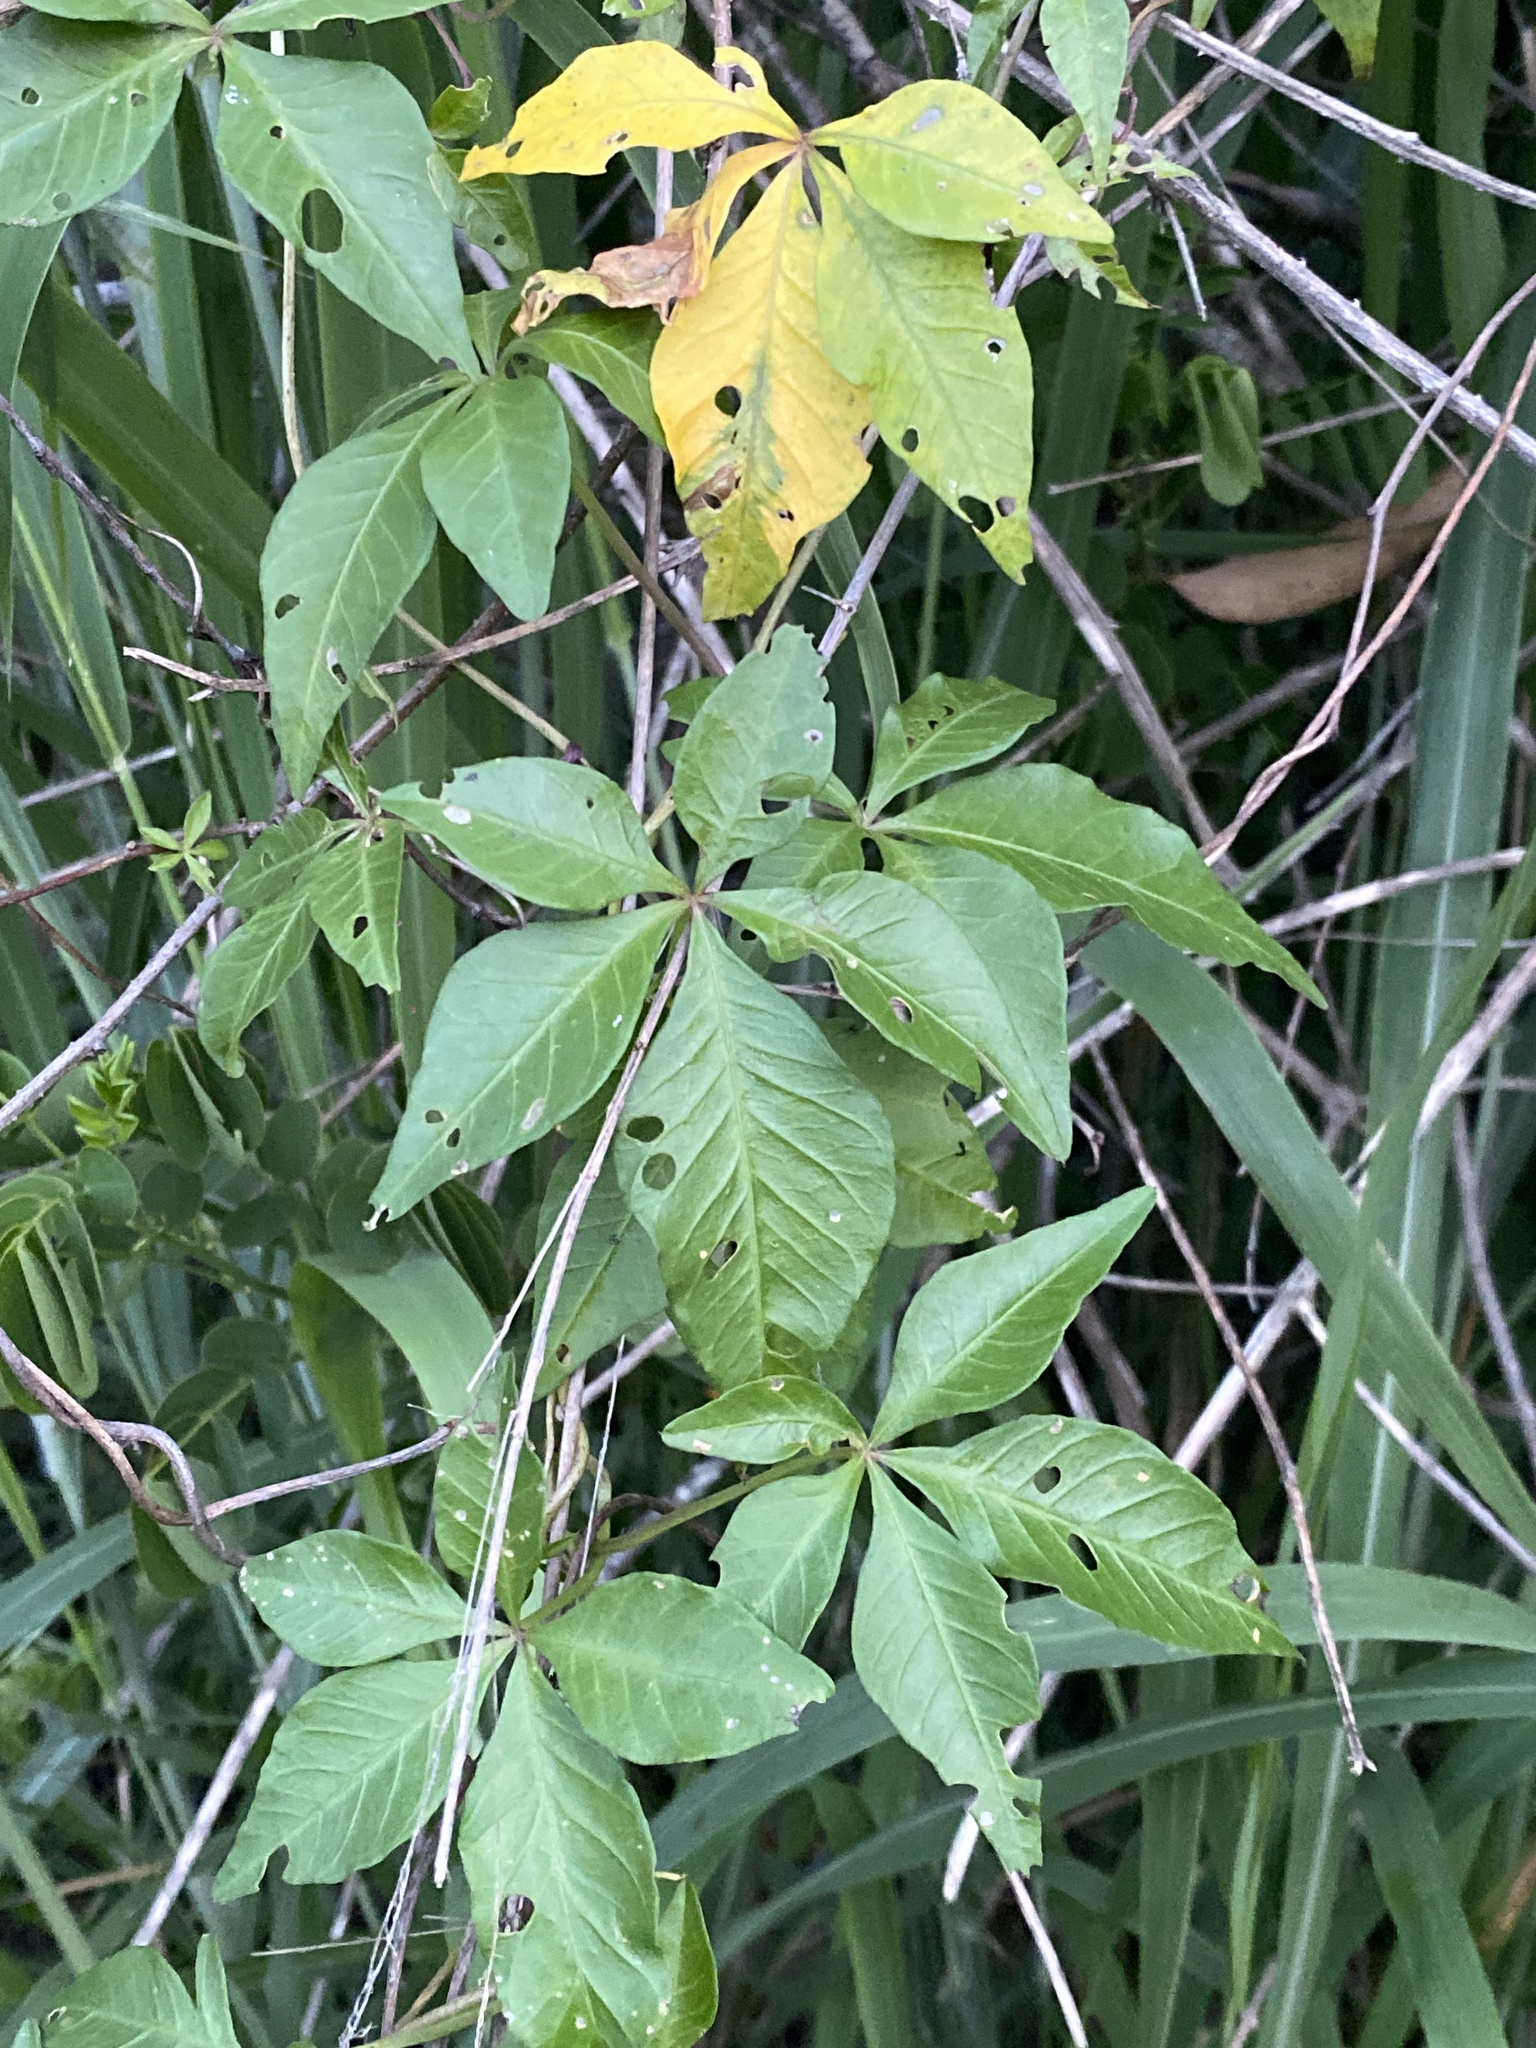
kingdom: Plantae
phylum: Tracheophyta
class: Magnoliopsida
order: Solanales
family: Convolvulaceae
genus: Ipomoea
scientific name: Ipomoea cairica
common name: Mile a minute vine
